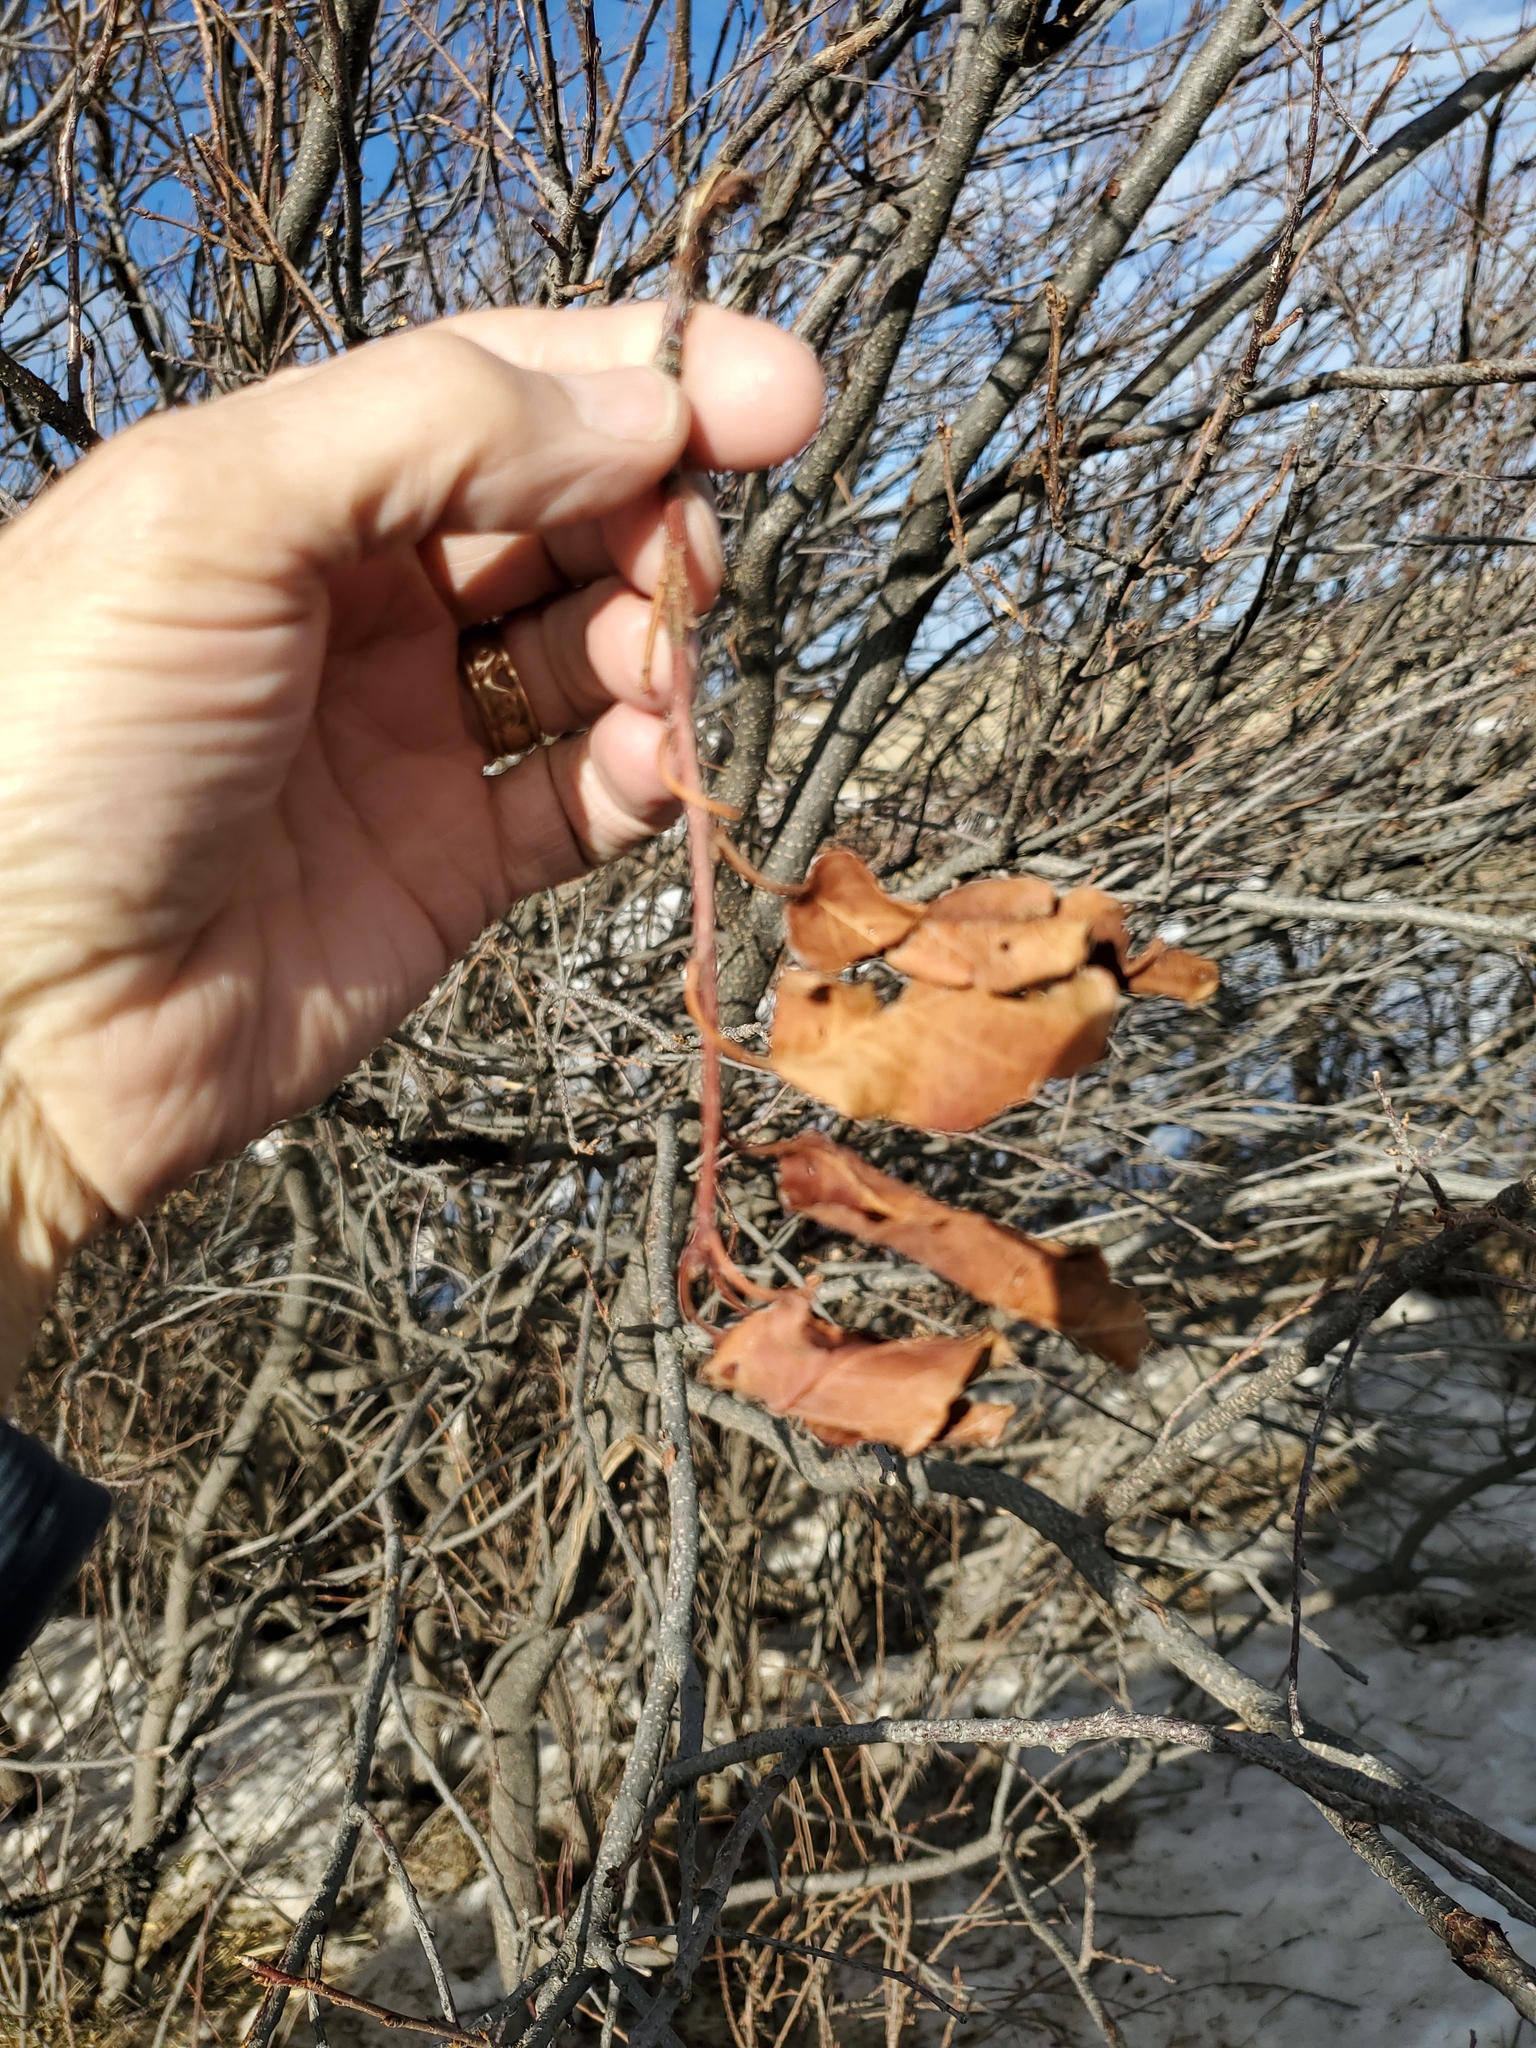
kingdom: Plantae
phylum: Tracheophyta
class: Magnoliopsida
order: Rosales
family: Rosaceae
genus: Prunus
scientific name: Prunus virginiana
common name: Chokecherry
